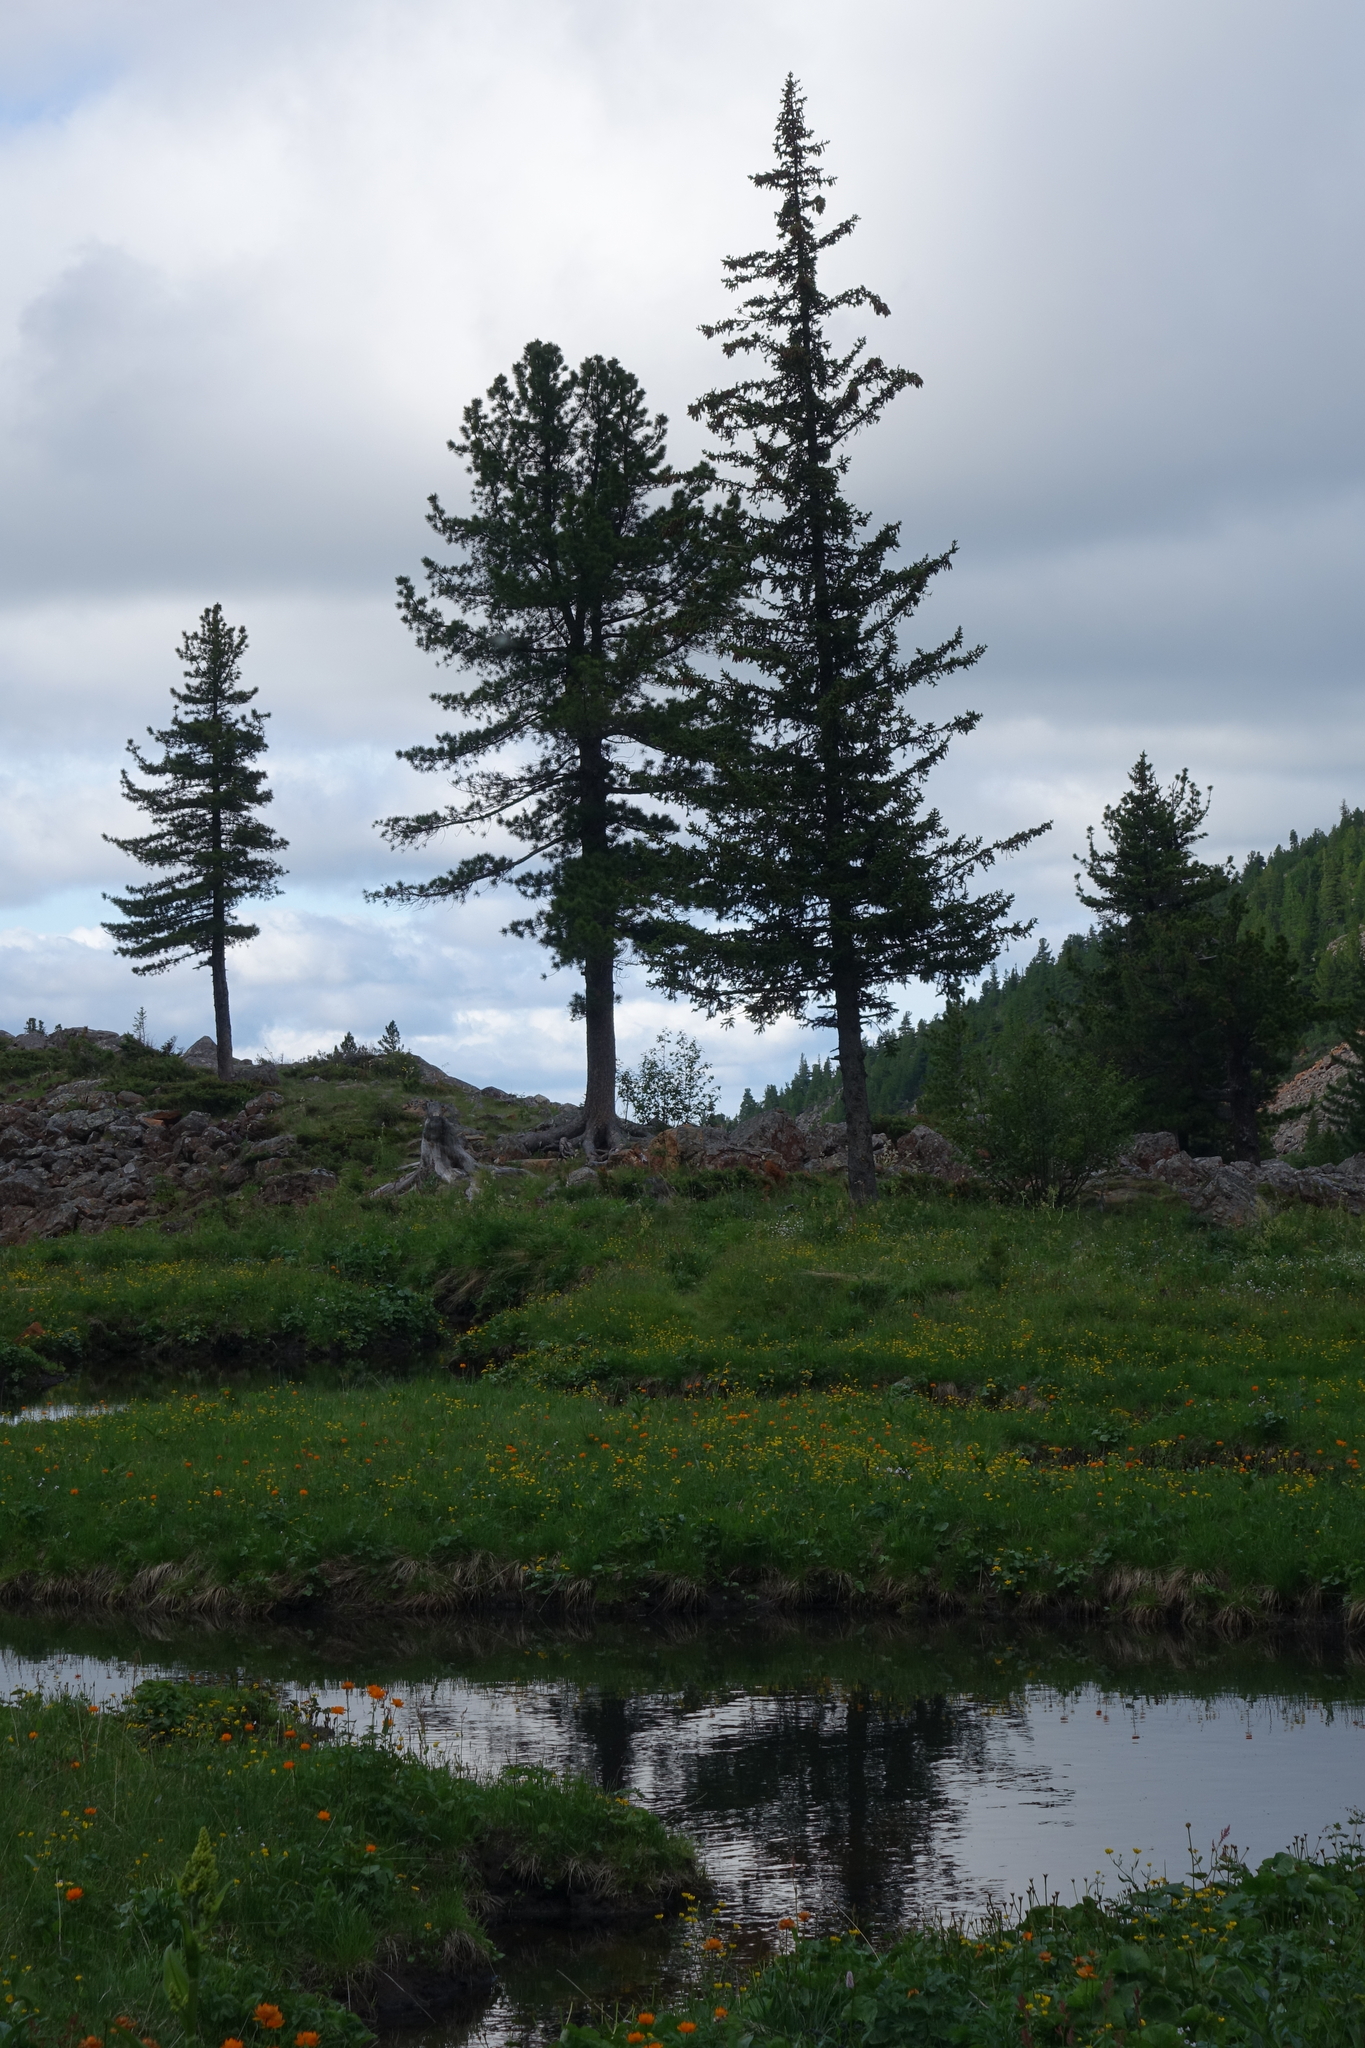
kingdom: Plantae
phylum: Tracheophyta
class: Pinopsida
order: Pinales
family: Pinaceae
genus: Pinus
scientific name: Pinus sibirica
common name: Siberian pine
